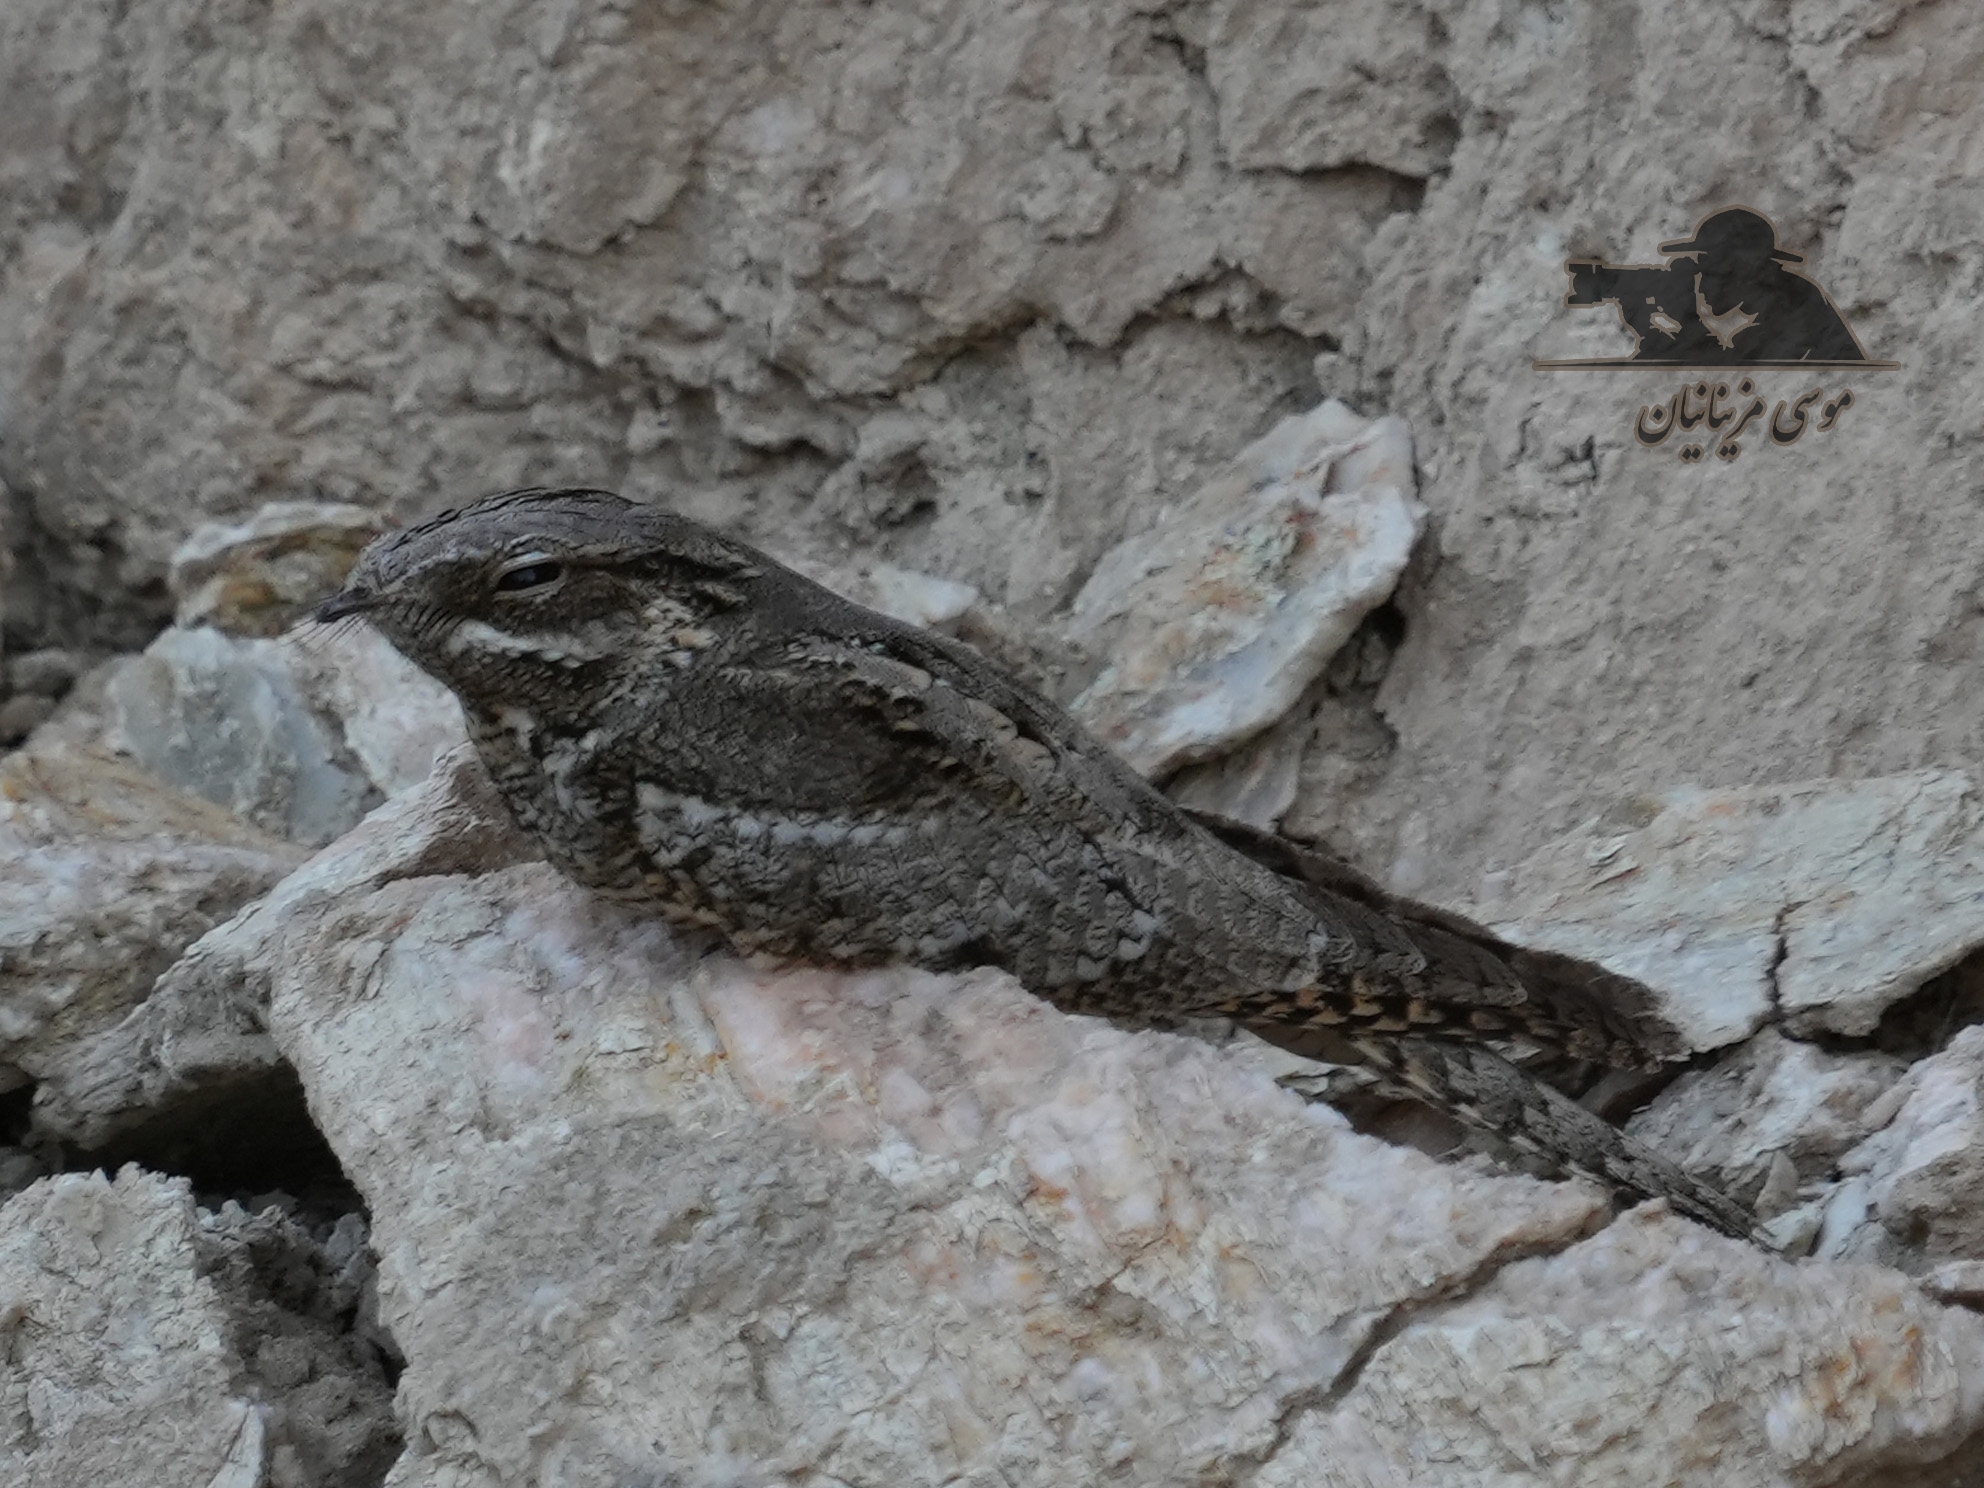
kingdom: Animalia
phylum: Chordata
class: Aves
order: Caprimulgiformes
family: Caprimulgidae
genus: Caprimulgus
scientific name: Caprimulgus europaeus
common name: European nightjar
